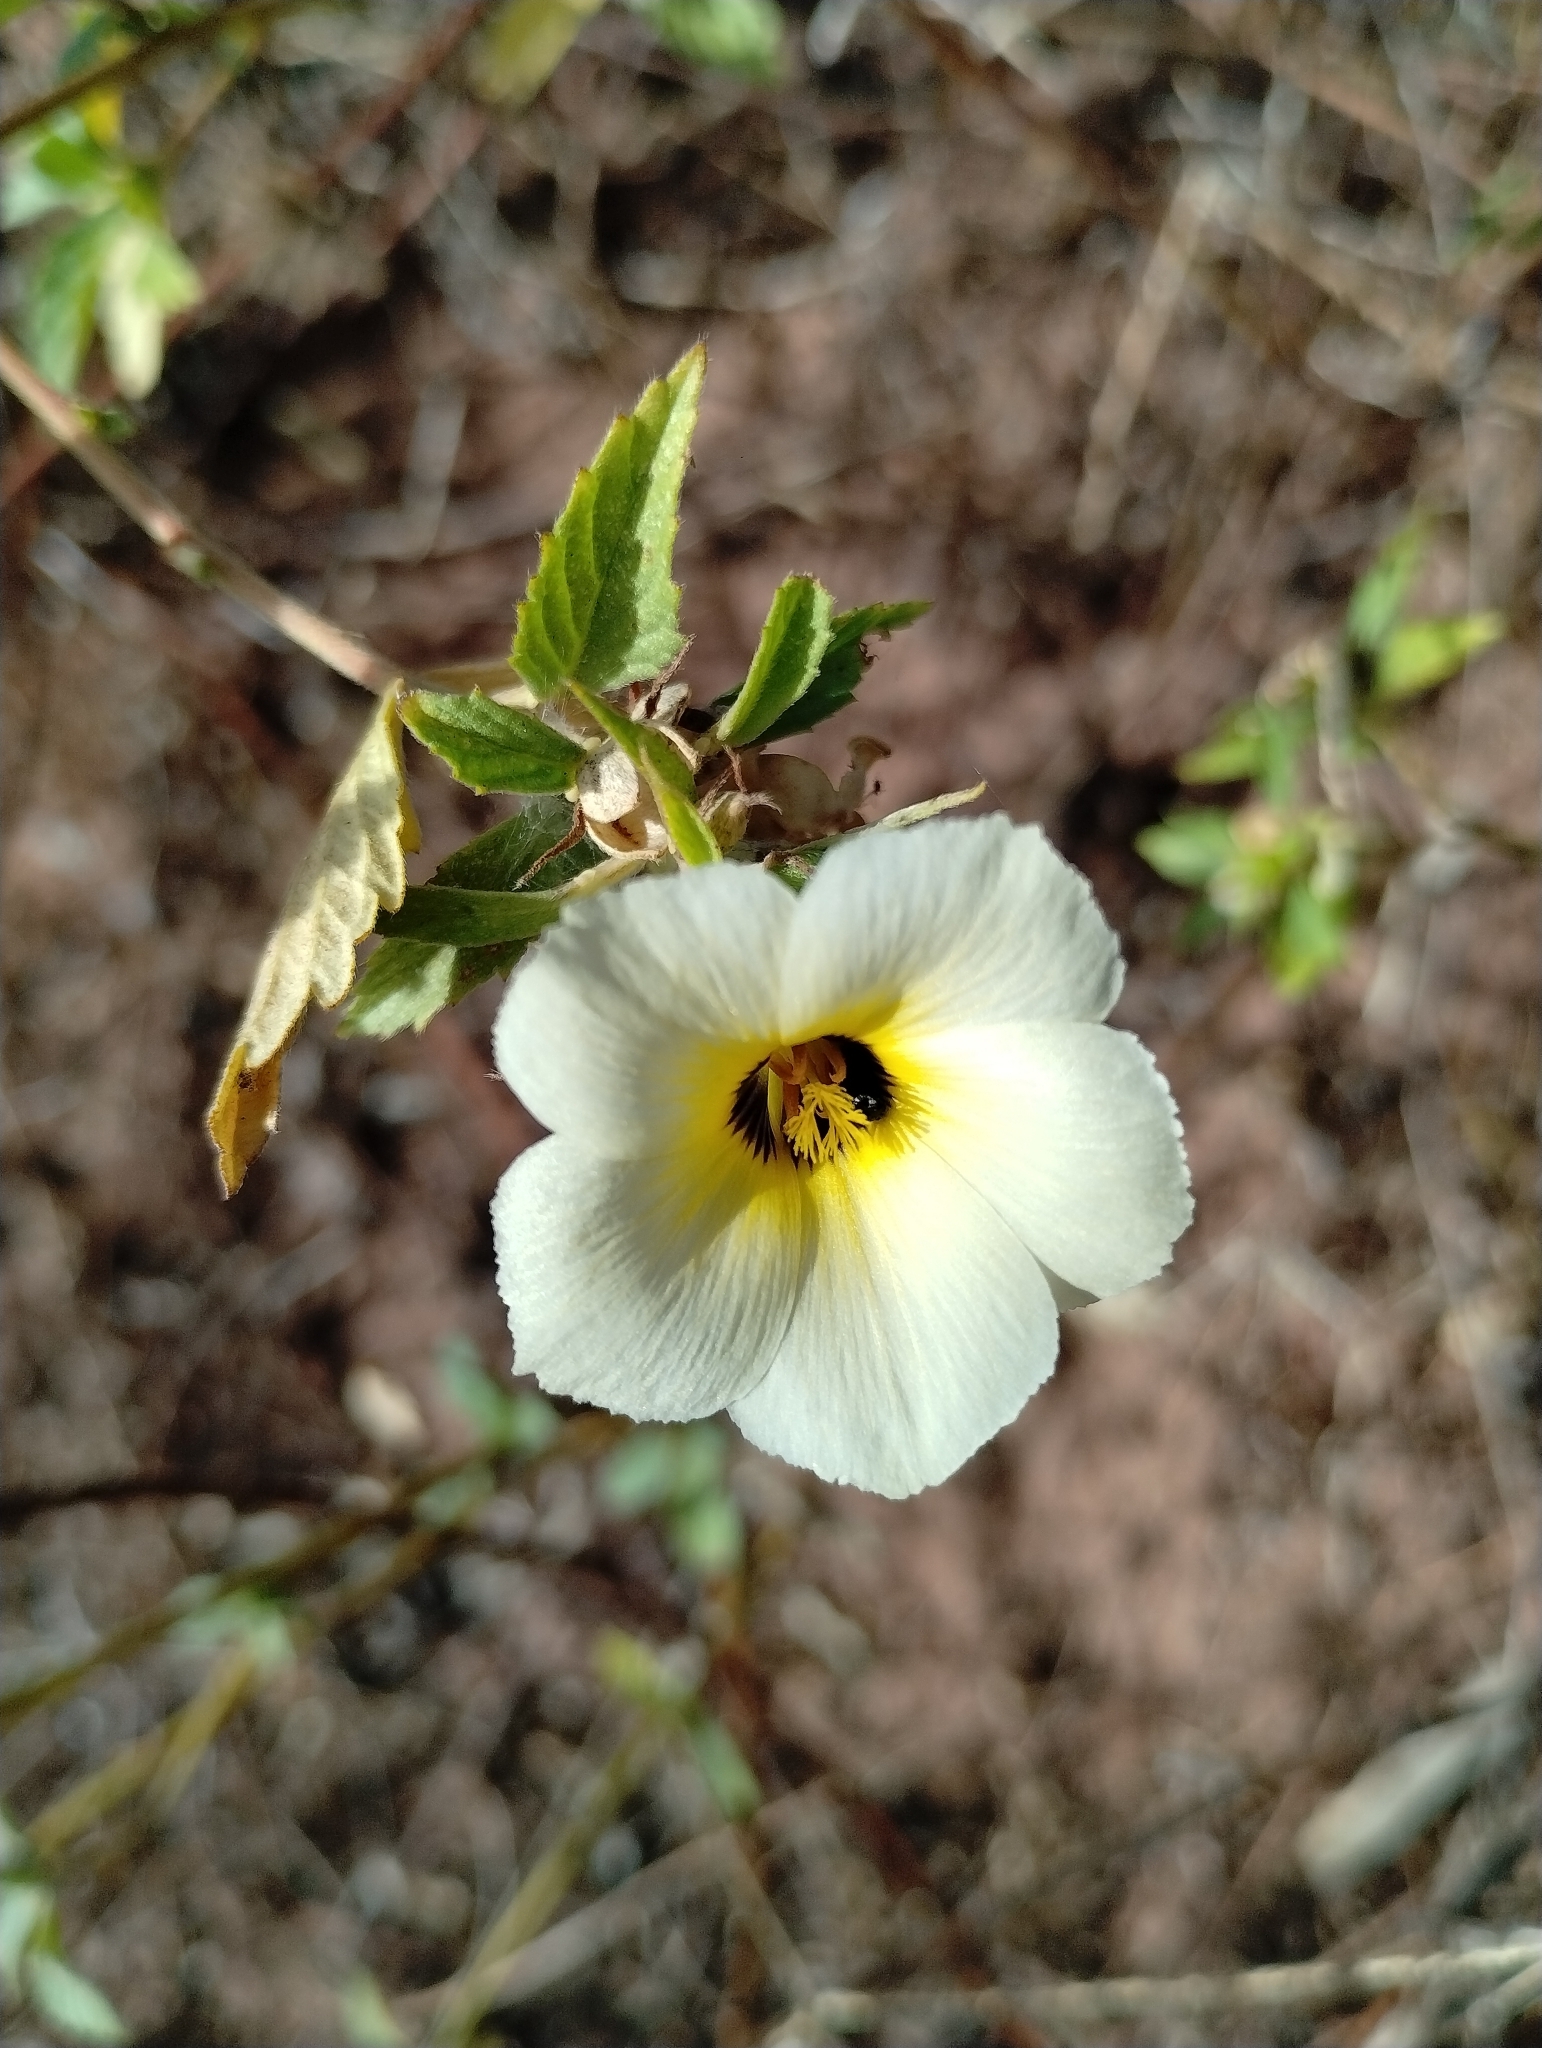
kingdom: Plantae
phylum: Tracheophyta
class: Magnoliopsida
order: Malpighiales
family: Turneraceae
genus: Turnera
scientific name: Turnera subulata
